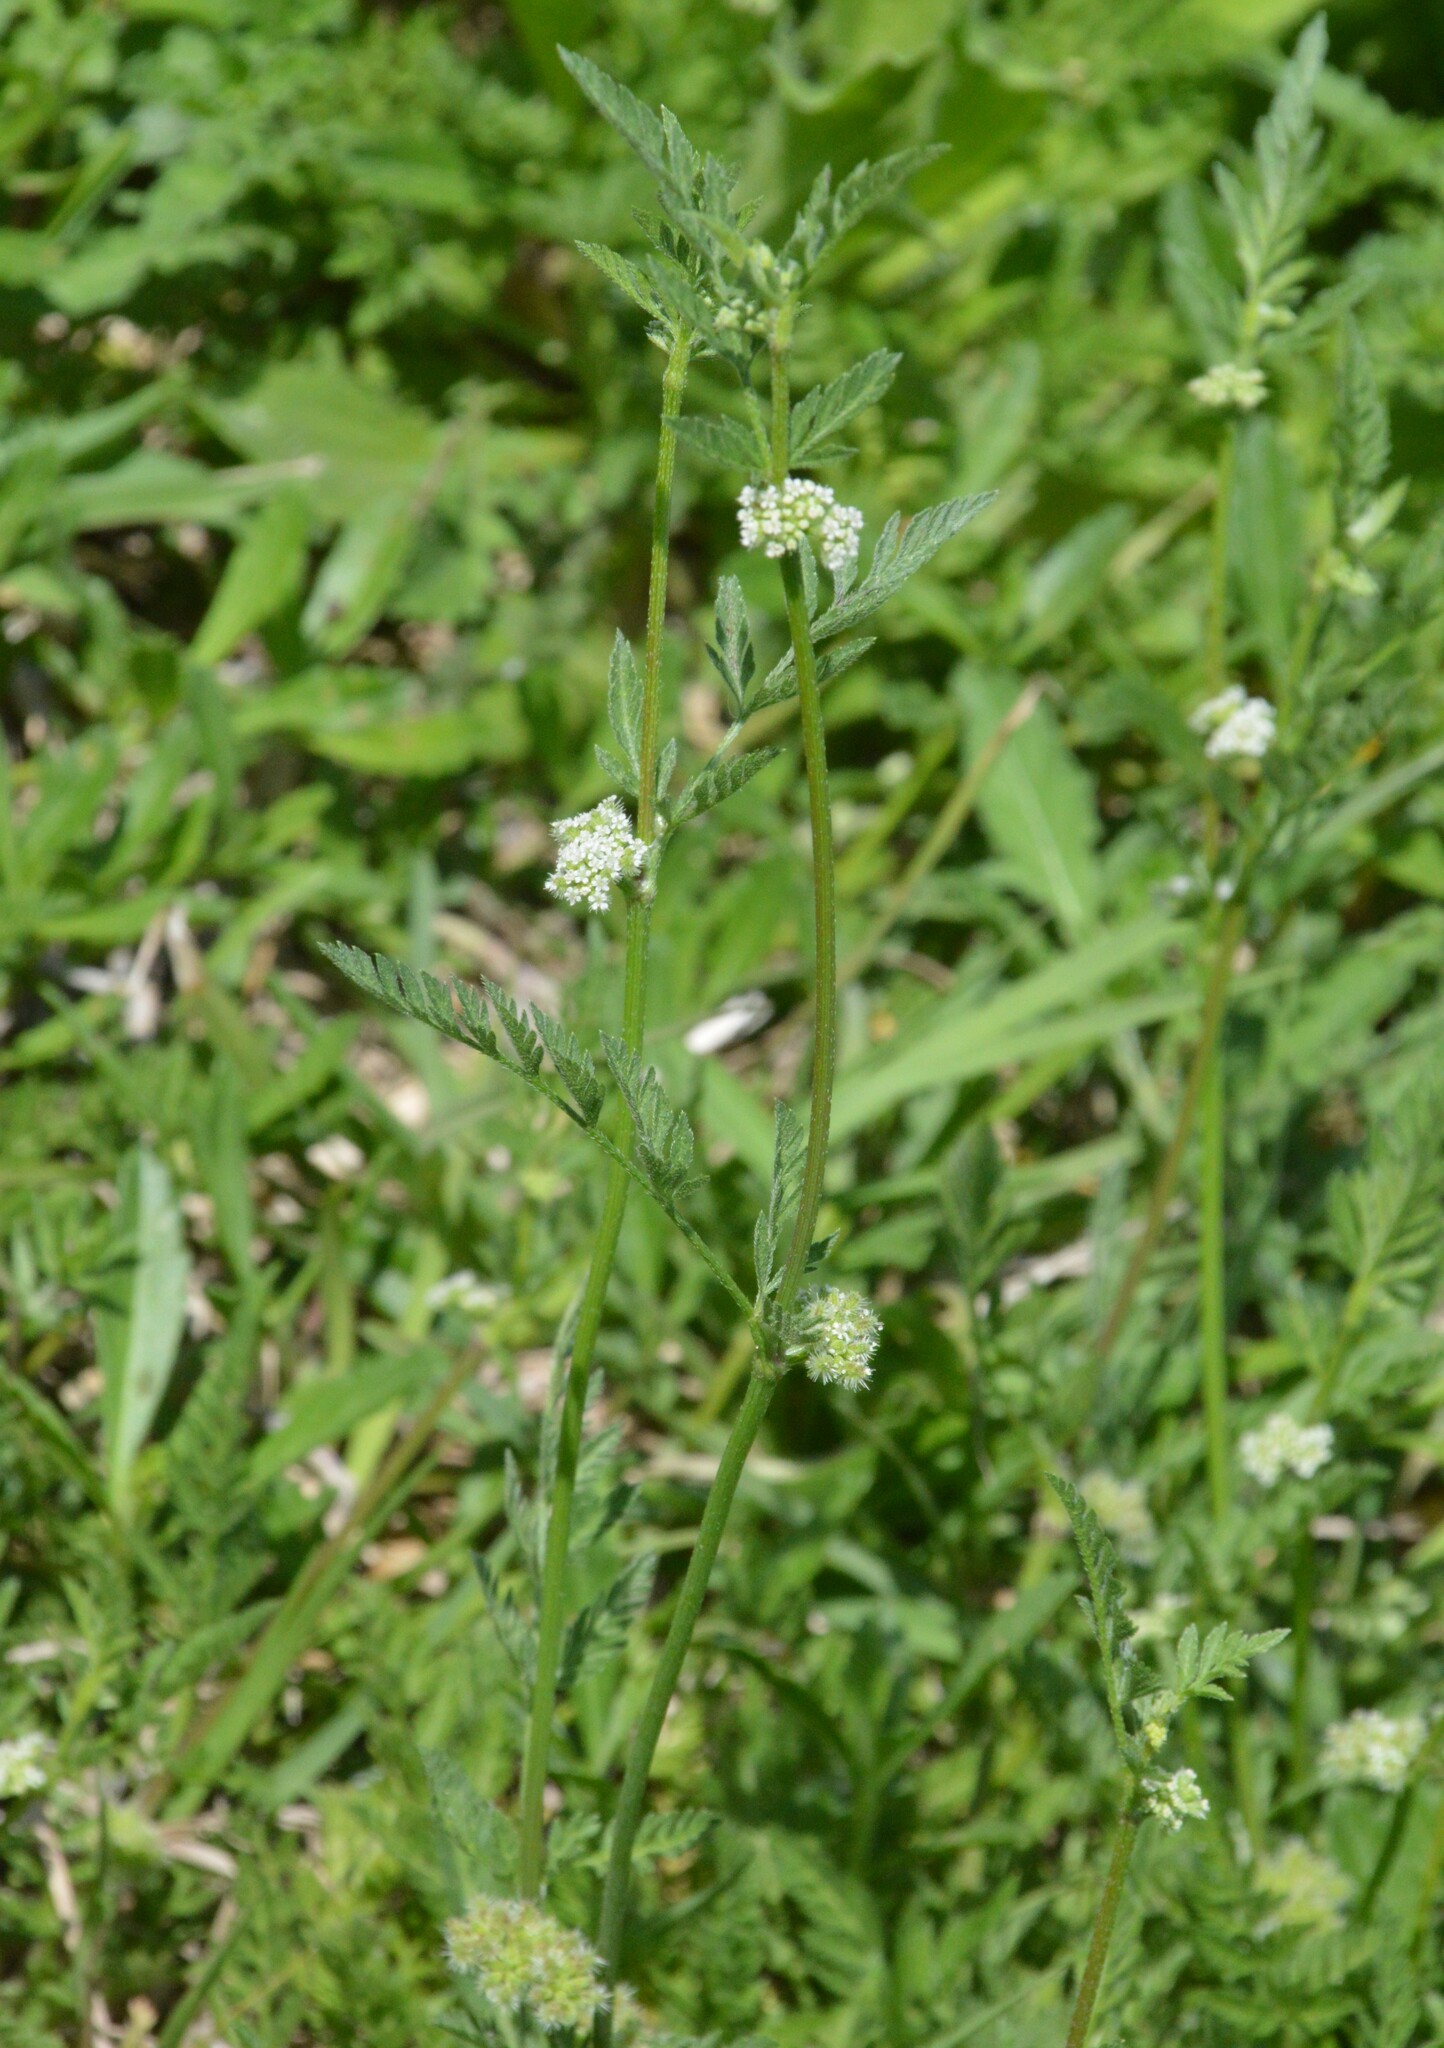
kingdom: Plantae
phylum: Tracheophyta
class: Magnoliopsida
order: Apiales
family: Apiaceae
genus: Torilis
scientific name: Torilis nodosa
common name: Knotted hedge-parsley
